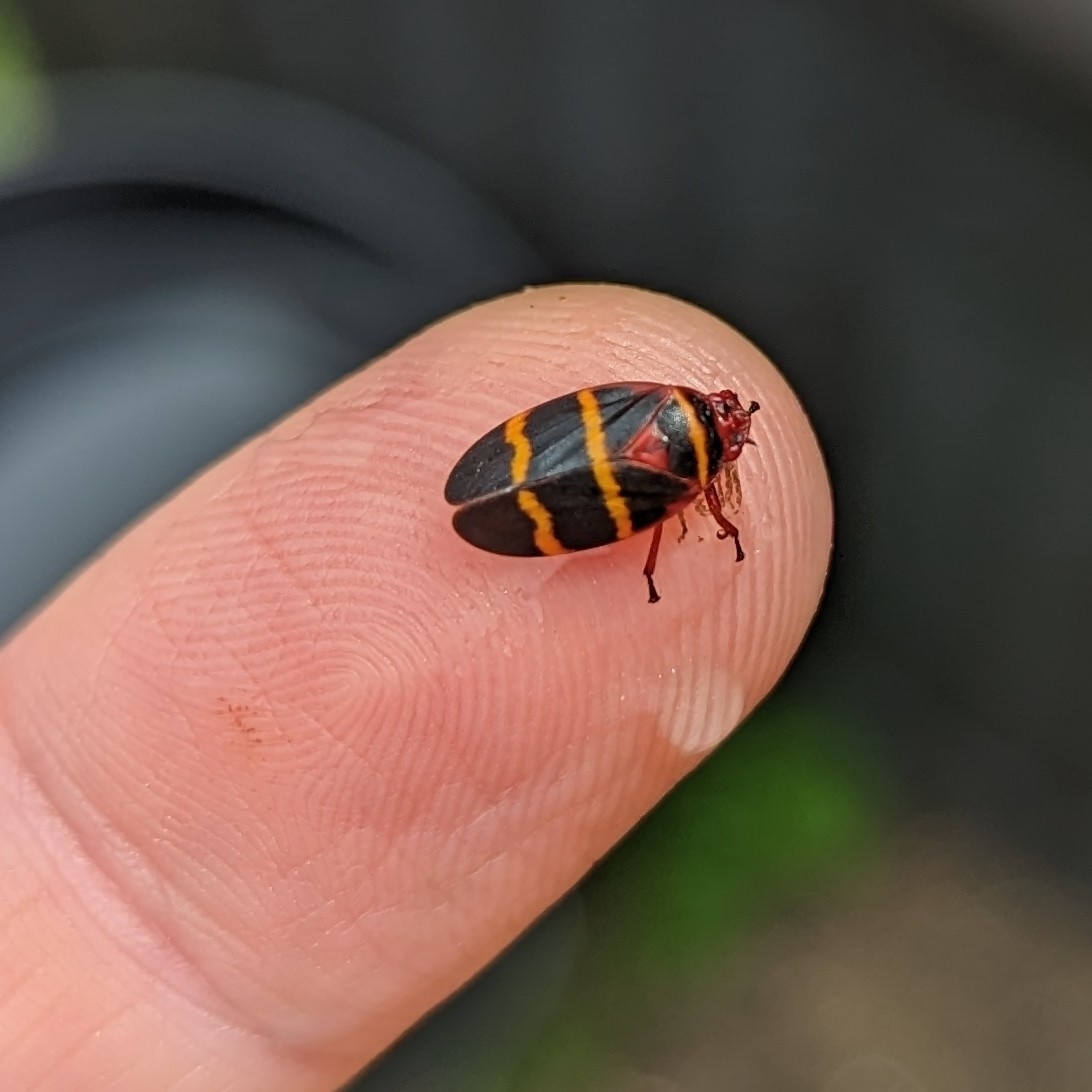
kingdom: Animalia
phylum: Arthropoda
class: Insecta
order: Hemiptera
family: Cercopidae
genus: Prosapia
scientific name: Prosapia bicincta
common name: Twolined spittlebug
